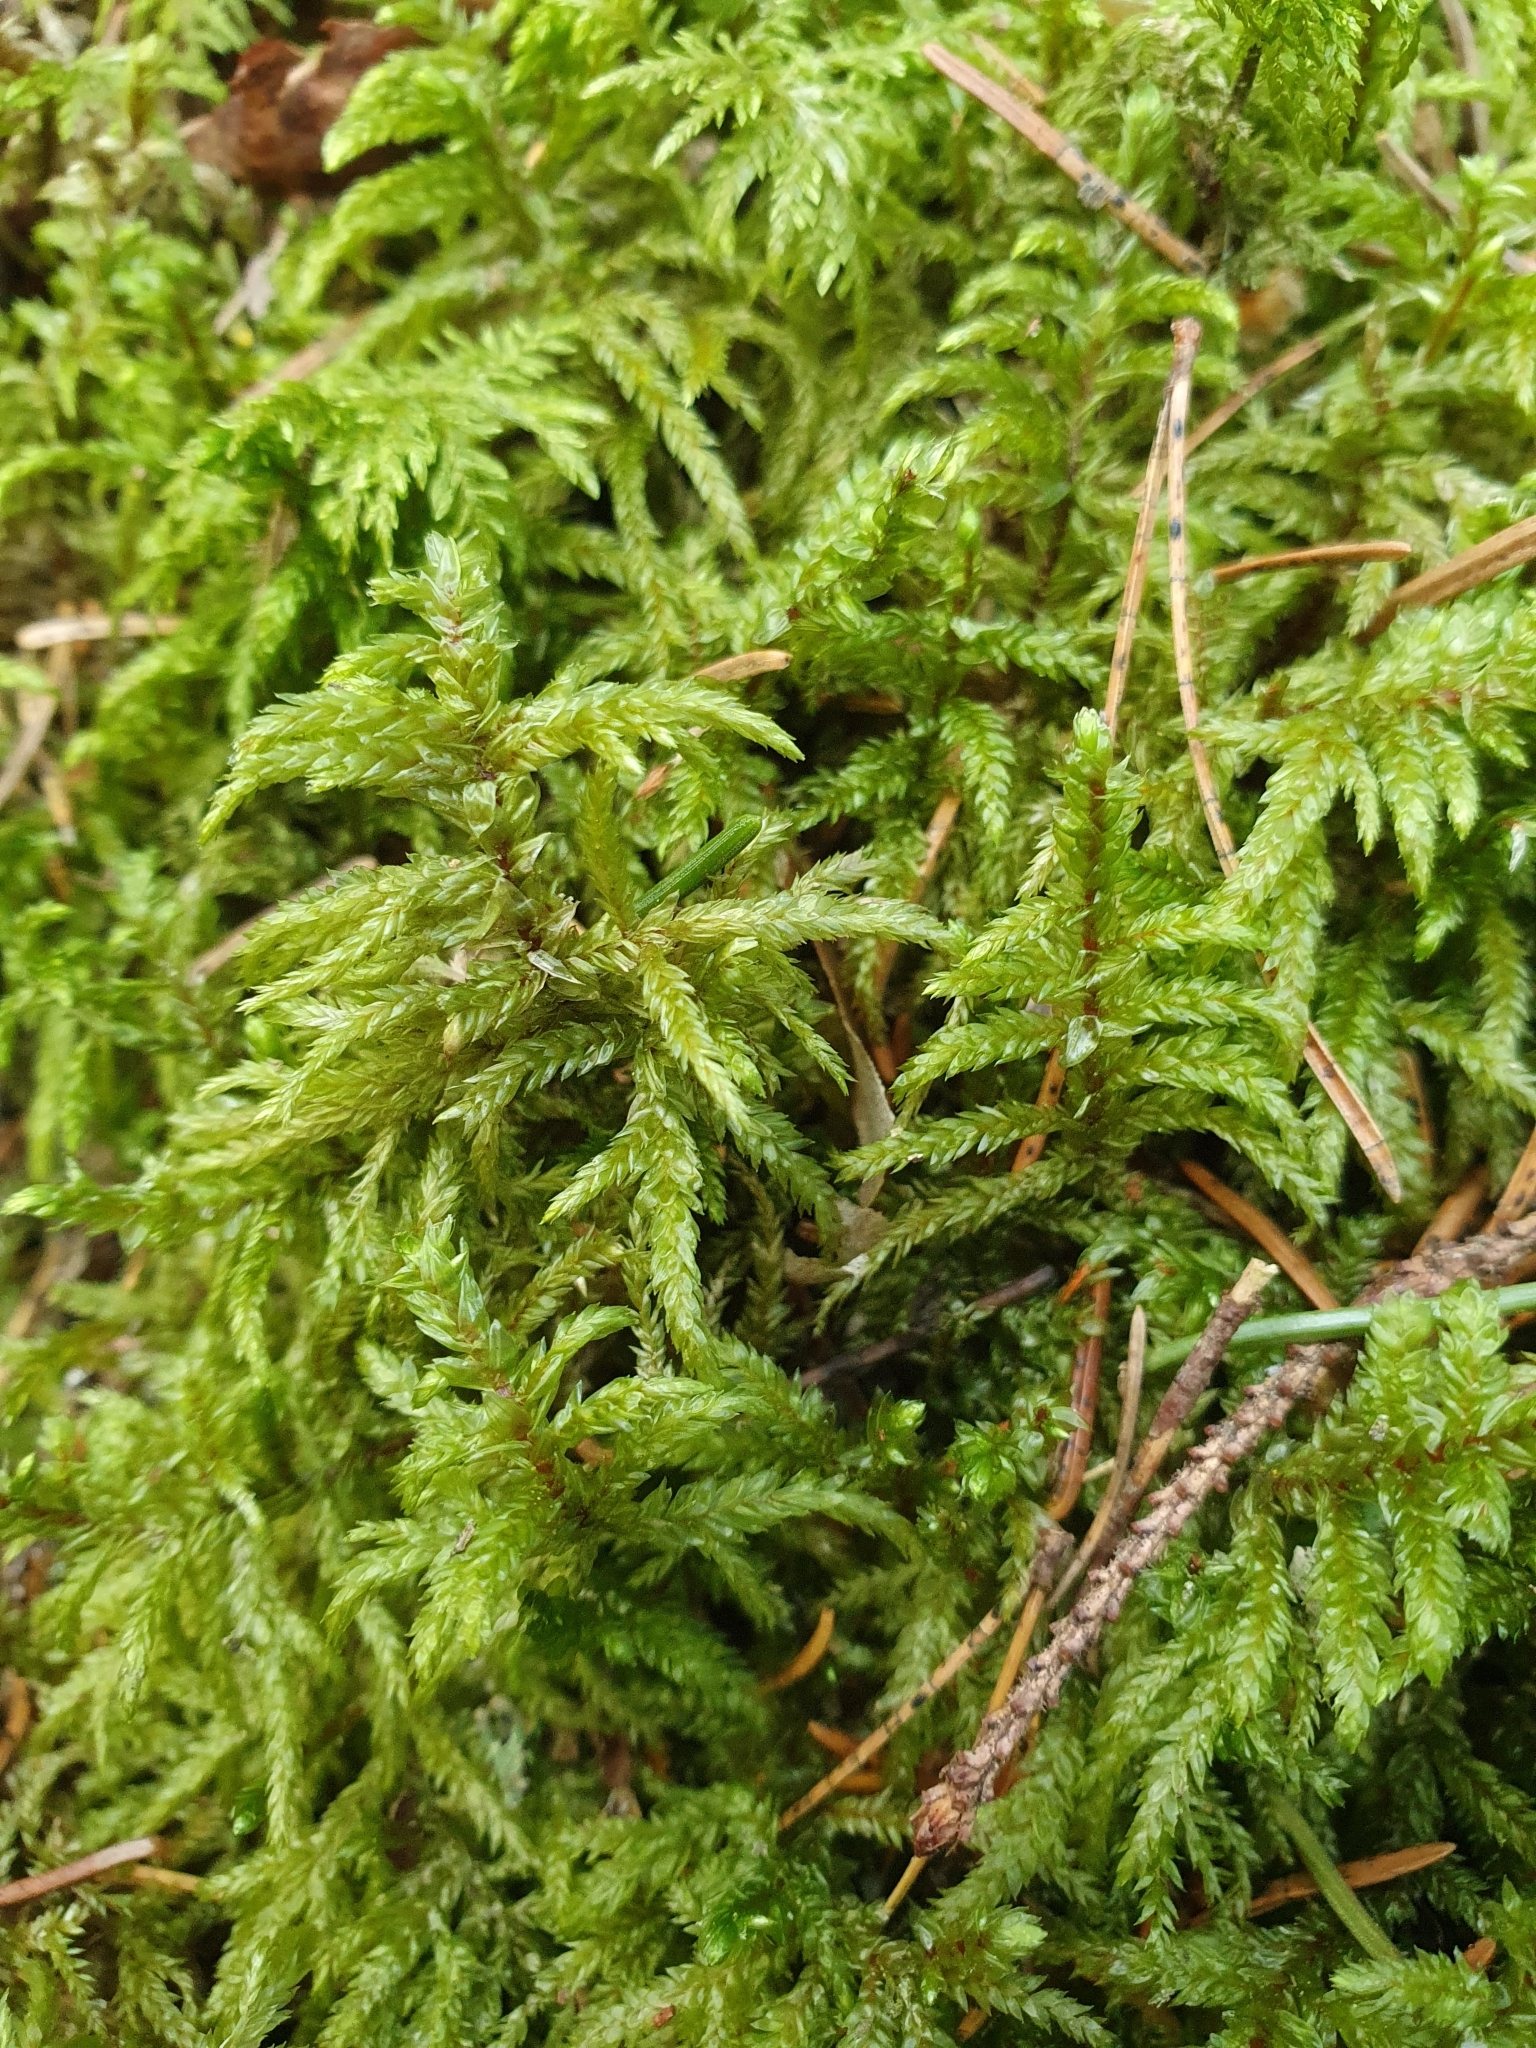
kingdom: Plantae
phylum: Bryophyta
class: Bryopsida
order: Hypnales
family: Hylocomiaceae
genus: Pleurozium
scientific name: Pleurozium schreberi
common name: Red-stemmed feather moss
